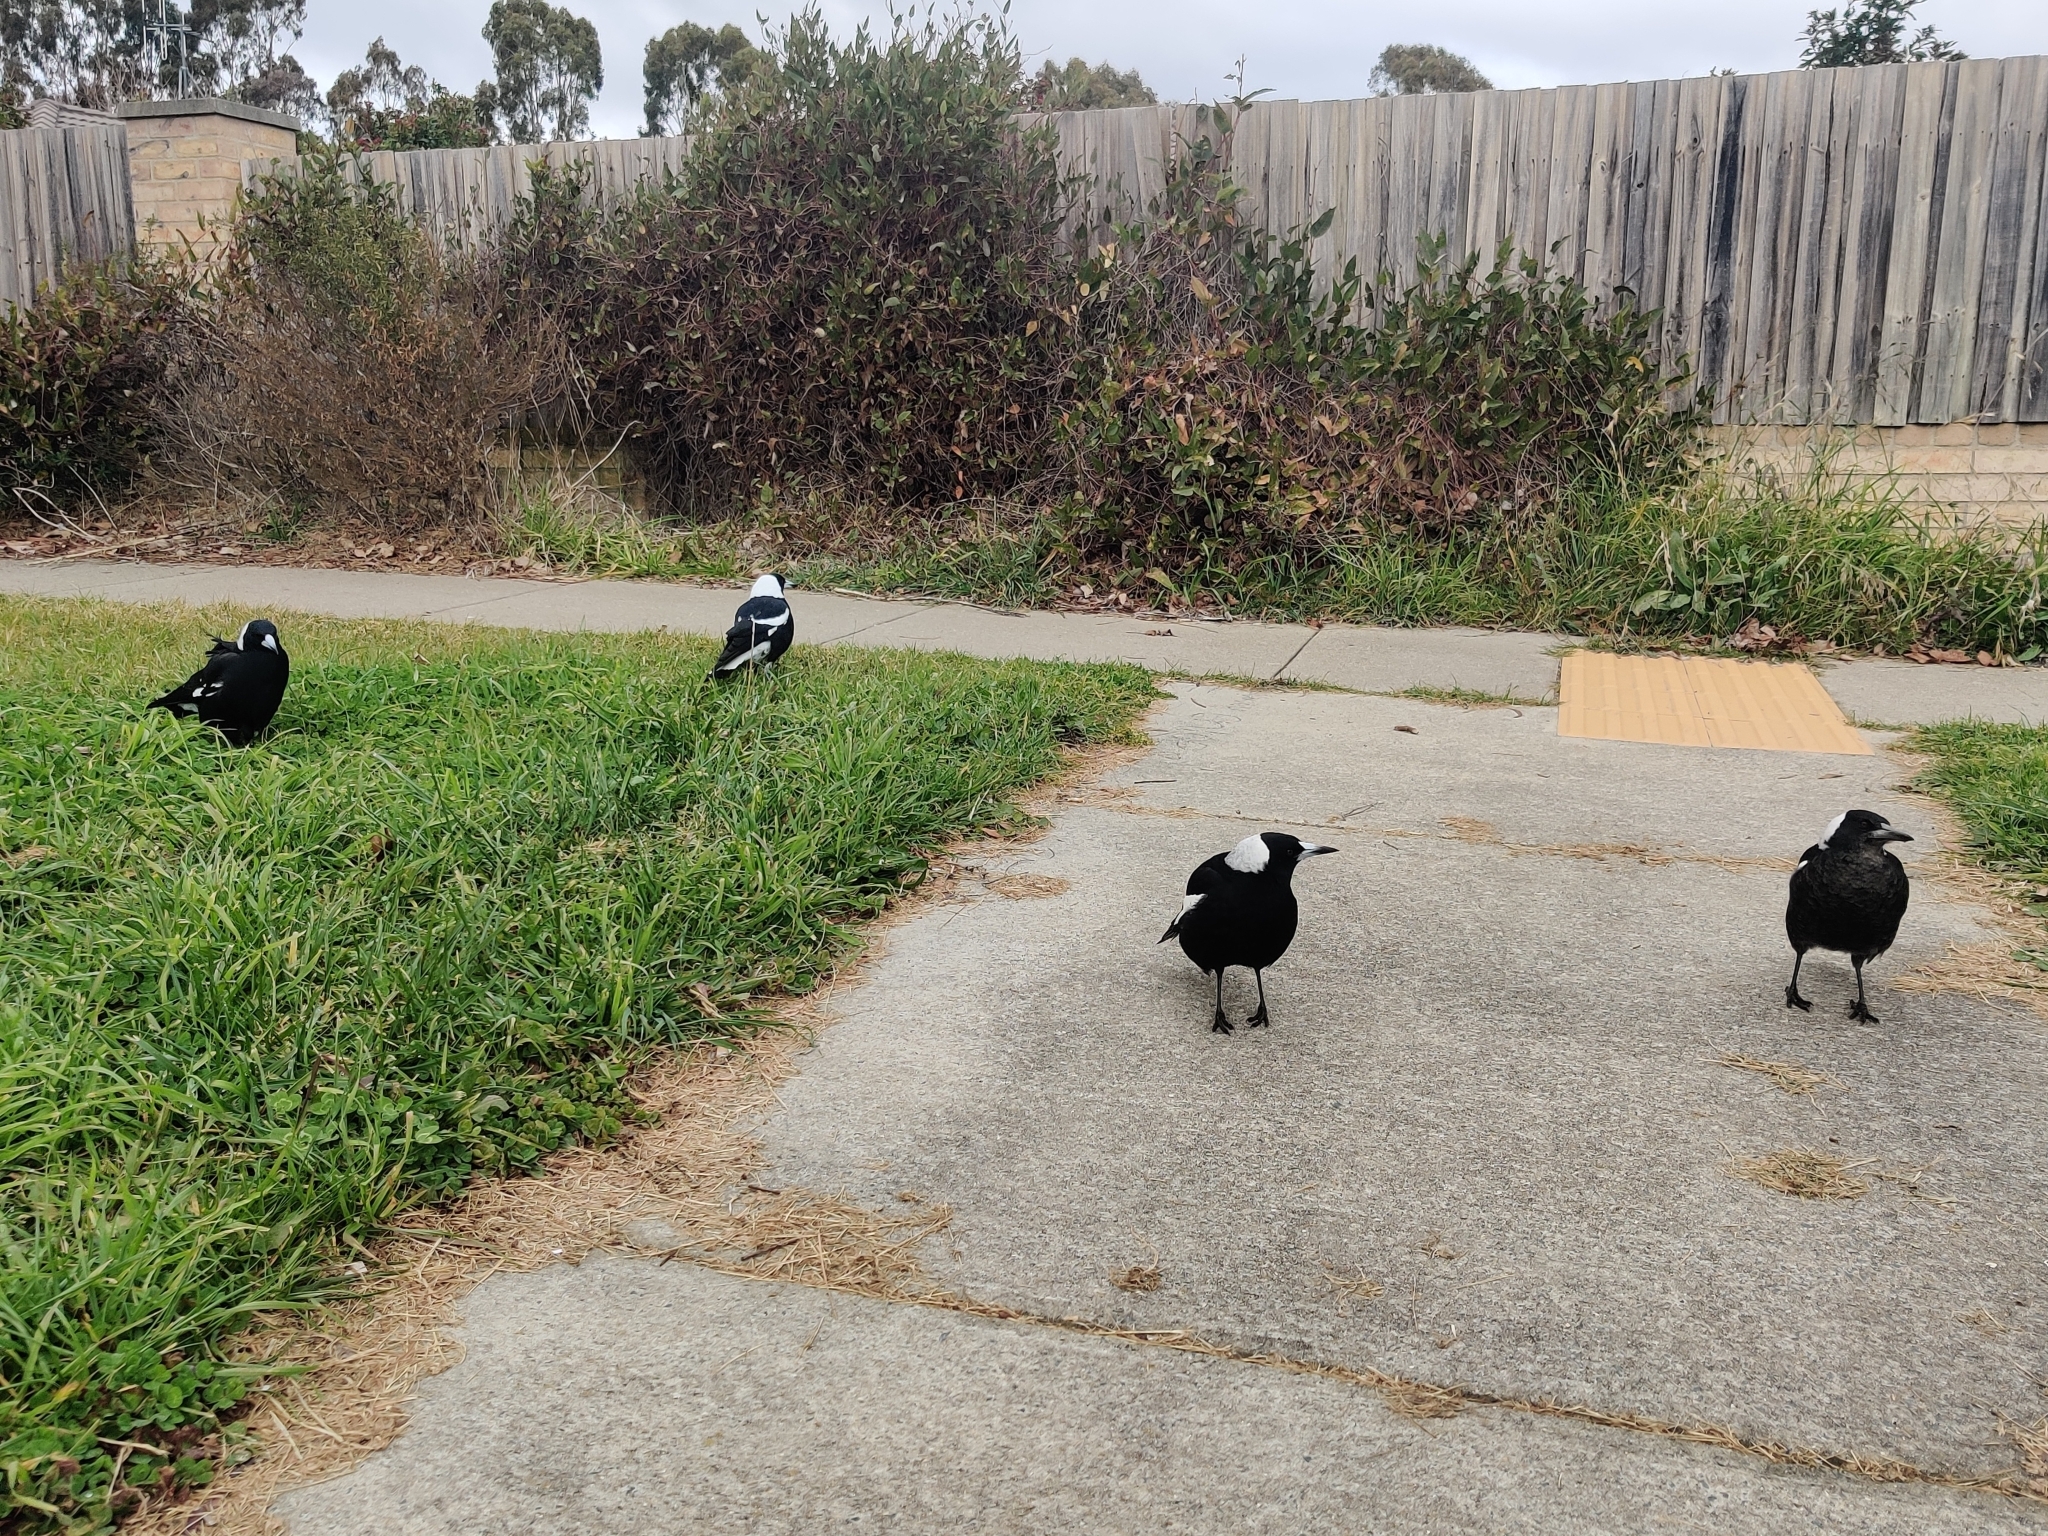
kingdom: Animalia
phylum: Chordata
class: Aves
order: Passeriformes
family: Cracticidae
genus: Gymnorhina
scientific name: Gymnorhina tibicen
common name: Australian magpie
